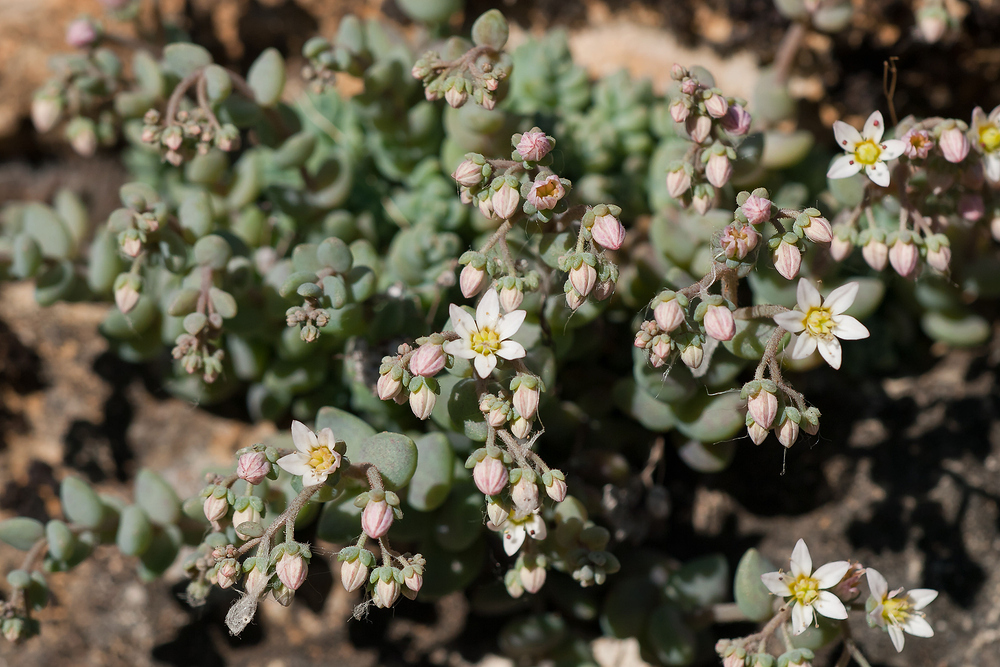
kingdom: Plantae
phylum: Tracheophyta
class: Magnoliopsida
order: Saxifragales
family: Crassulaceae
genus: Sedum
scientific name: Sedum dasyphyllum
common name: Thick-leaf stonecrop
